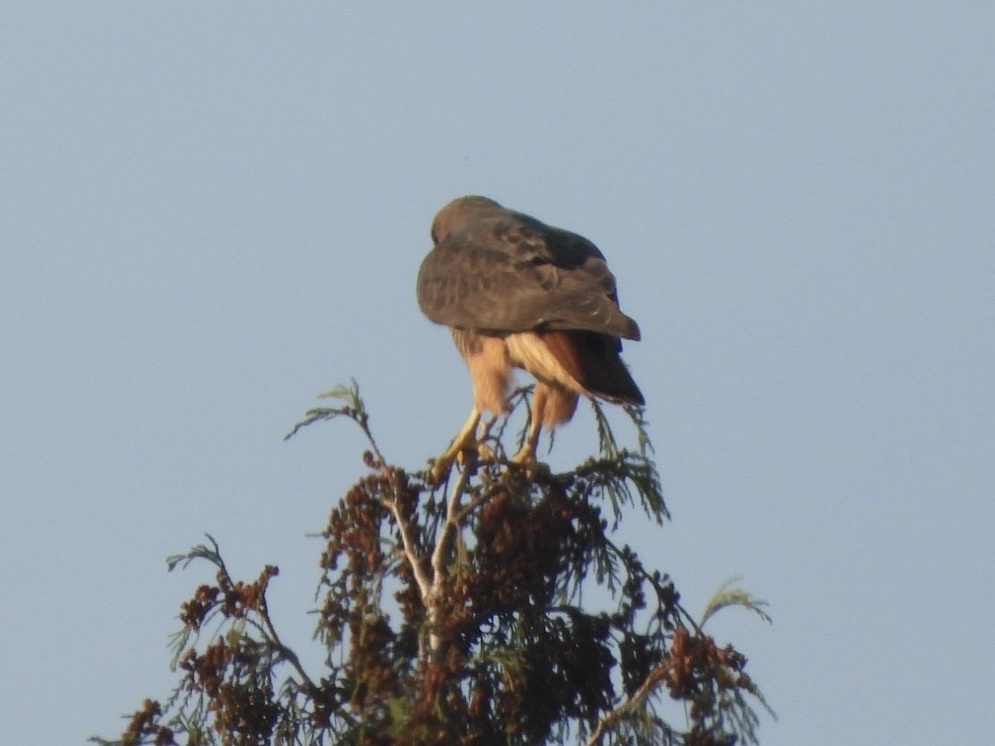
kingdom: Animalia
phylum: Chordata
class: Aves
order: Accipitriformes
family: Accipitridae
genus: Buteo
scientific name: Buteo jamaicensis
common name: Red-tailed hawk
